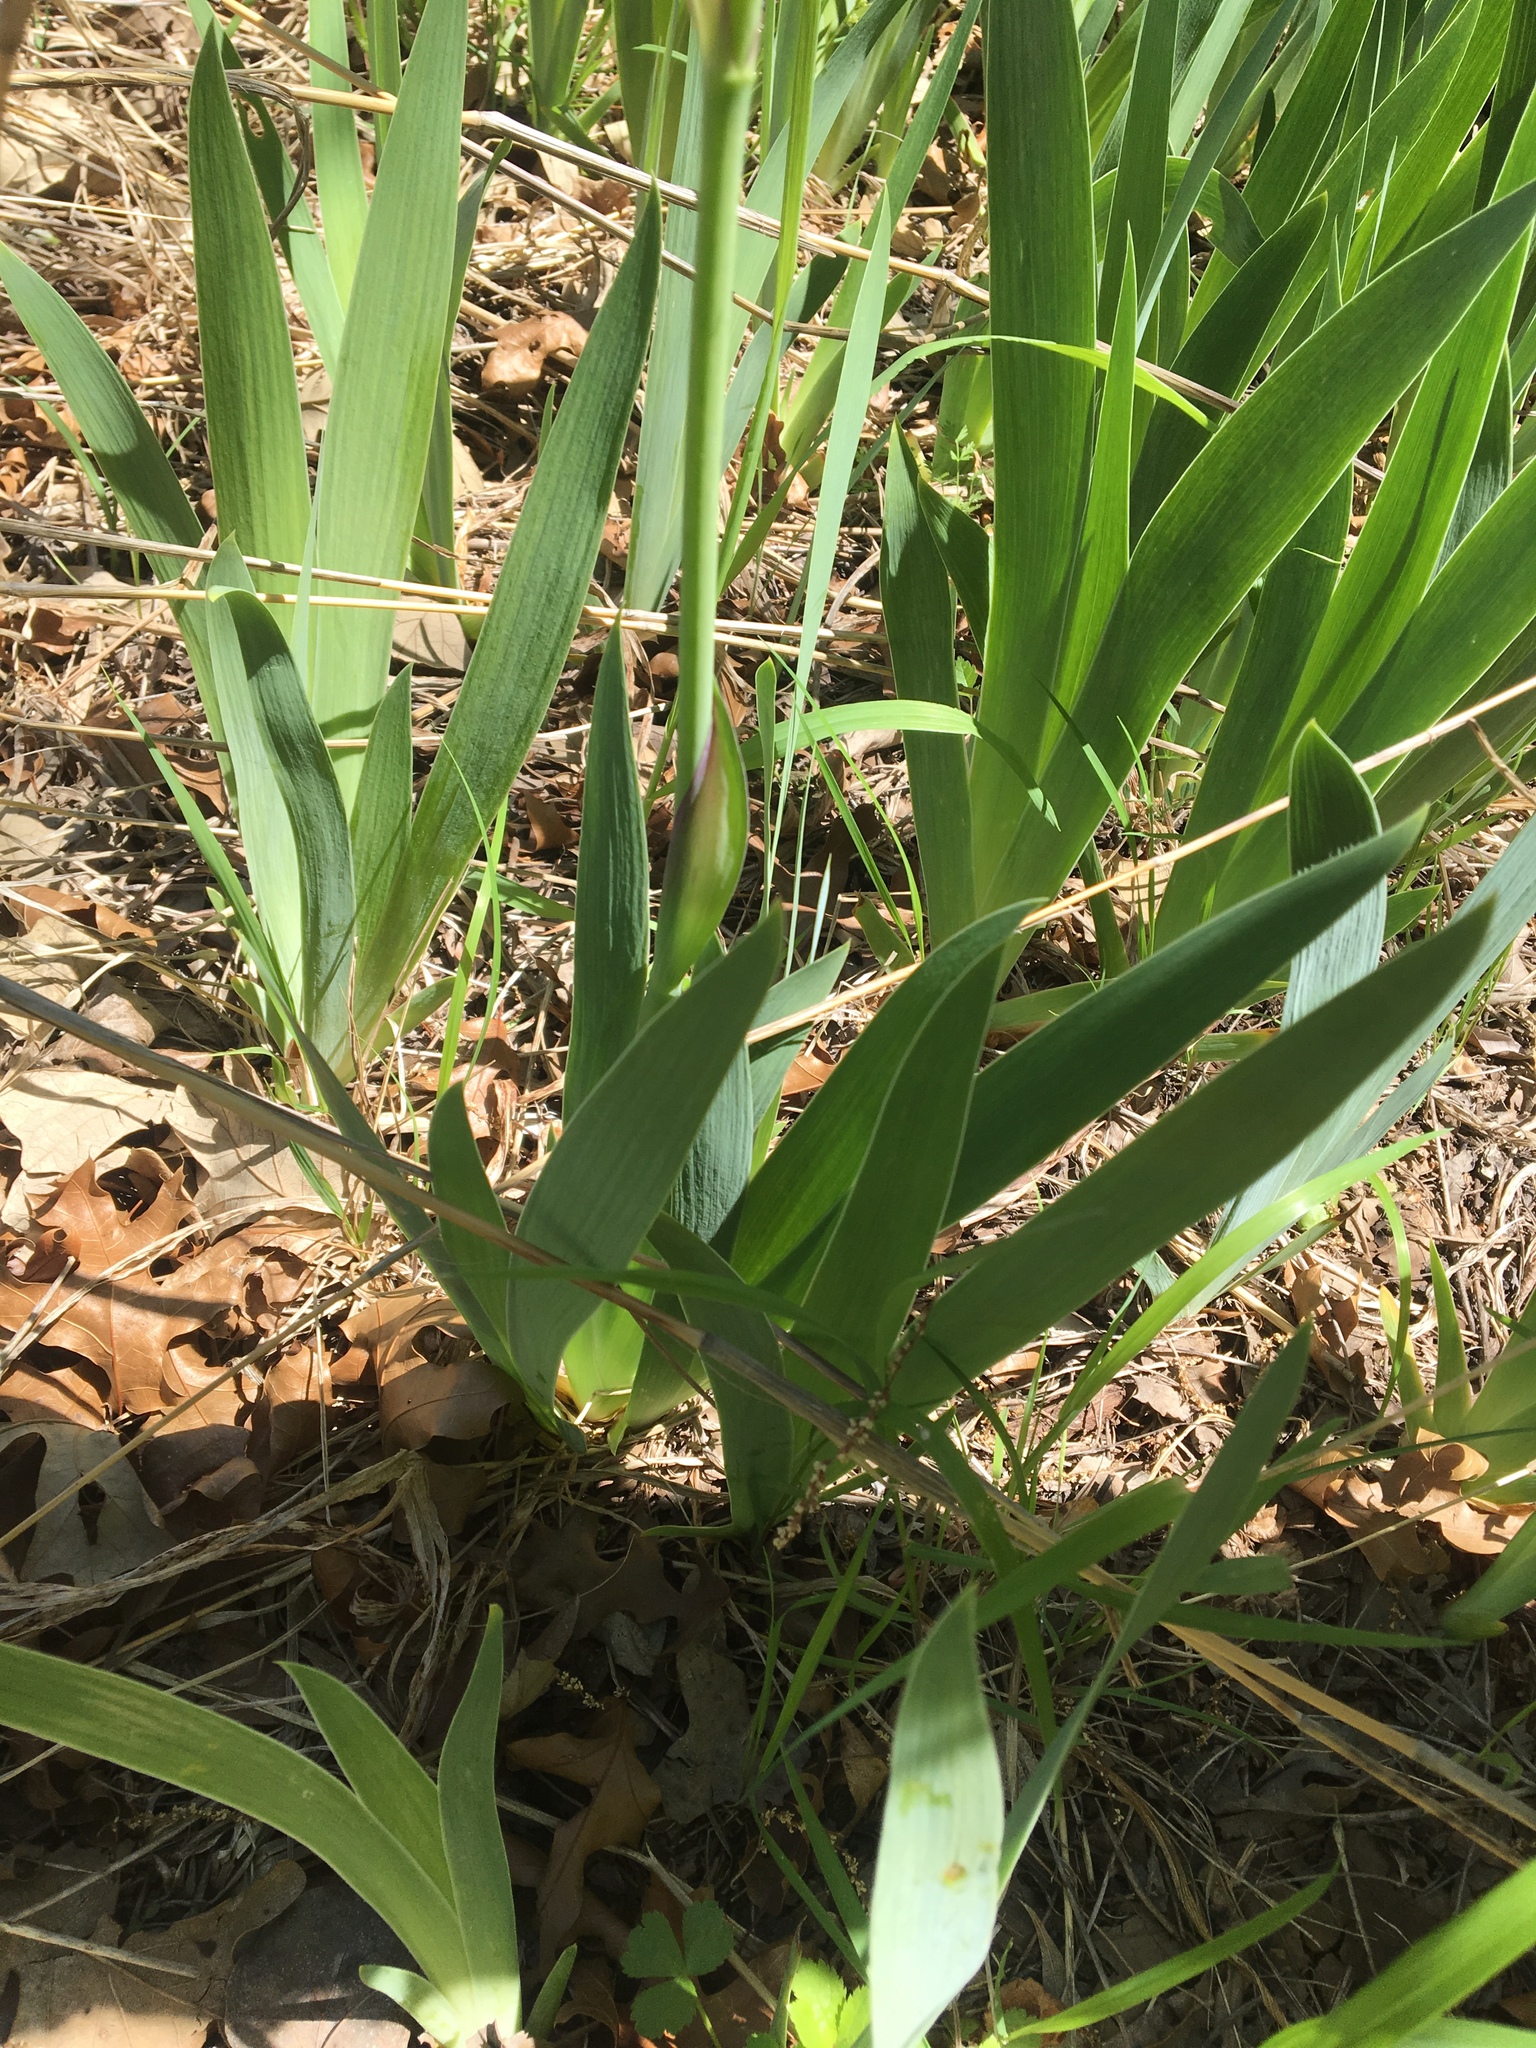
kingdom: Plantae
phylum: Tracheophyta
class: Liliopsida
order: Asparagales
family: Iridaceae
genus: Iris
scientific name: Iris germanica
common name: German iris
